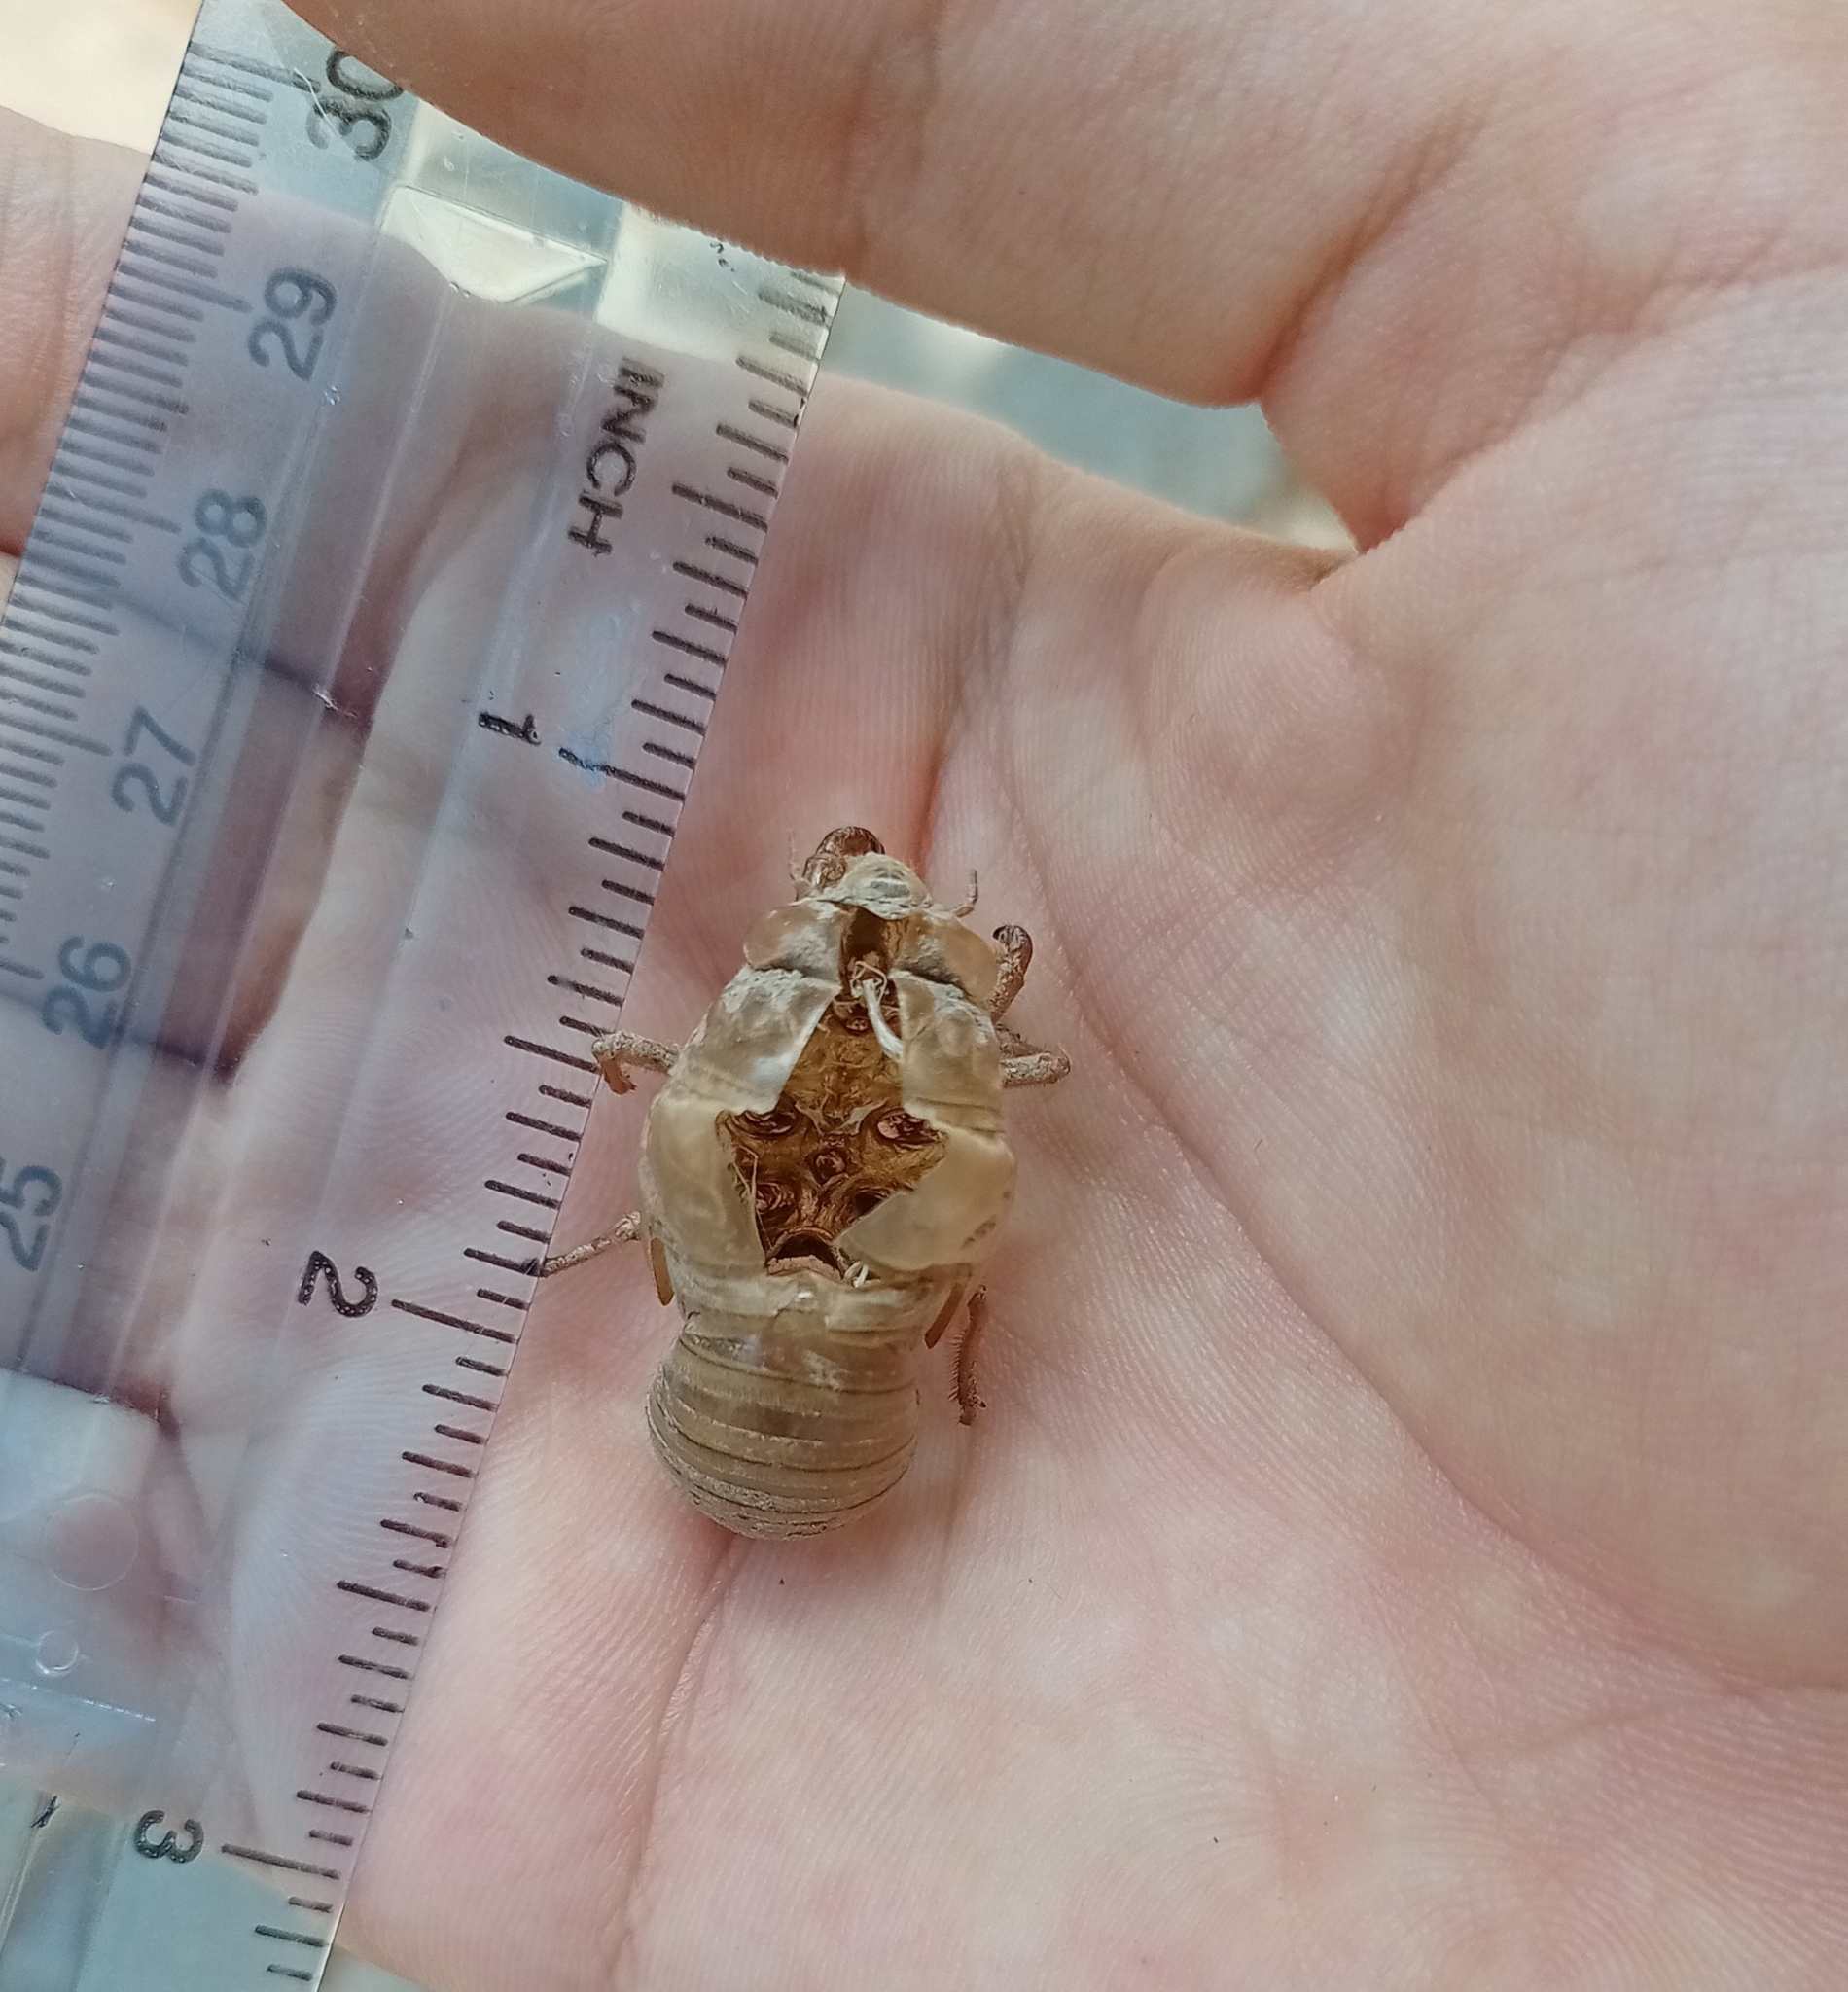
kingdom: Animalia
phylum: Arthropoda
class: Insecta
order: Hemiptera
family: Cicadidae
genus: Lyristes
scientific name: Lyristes gemellus
